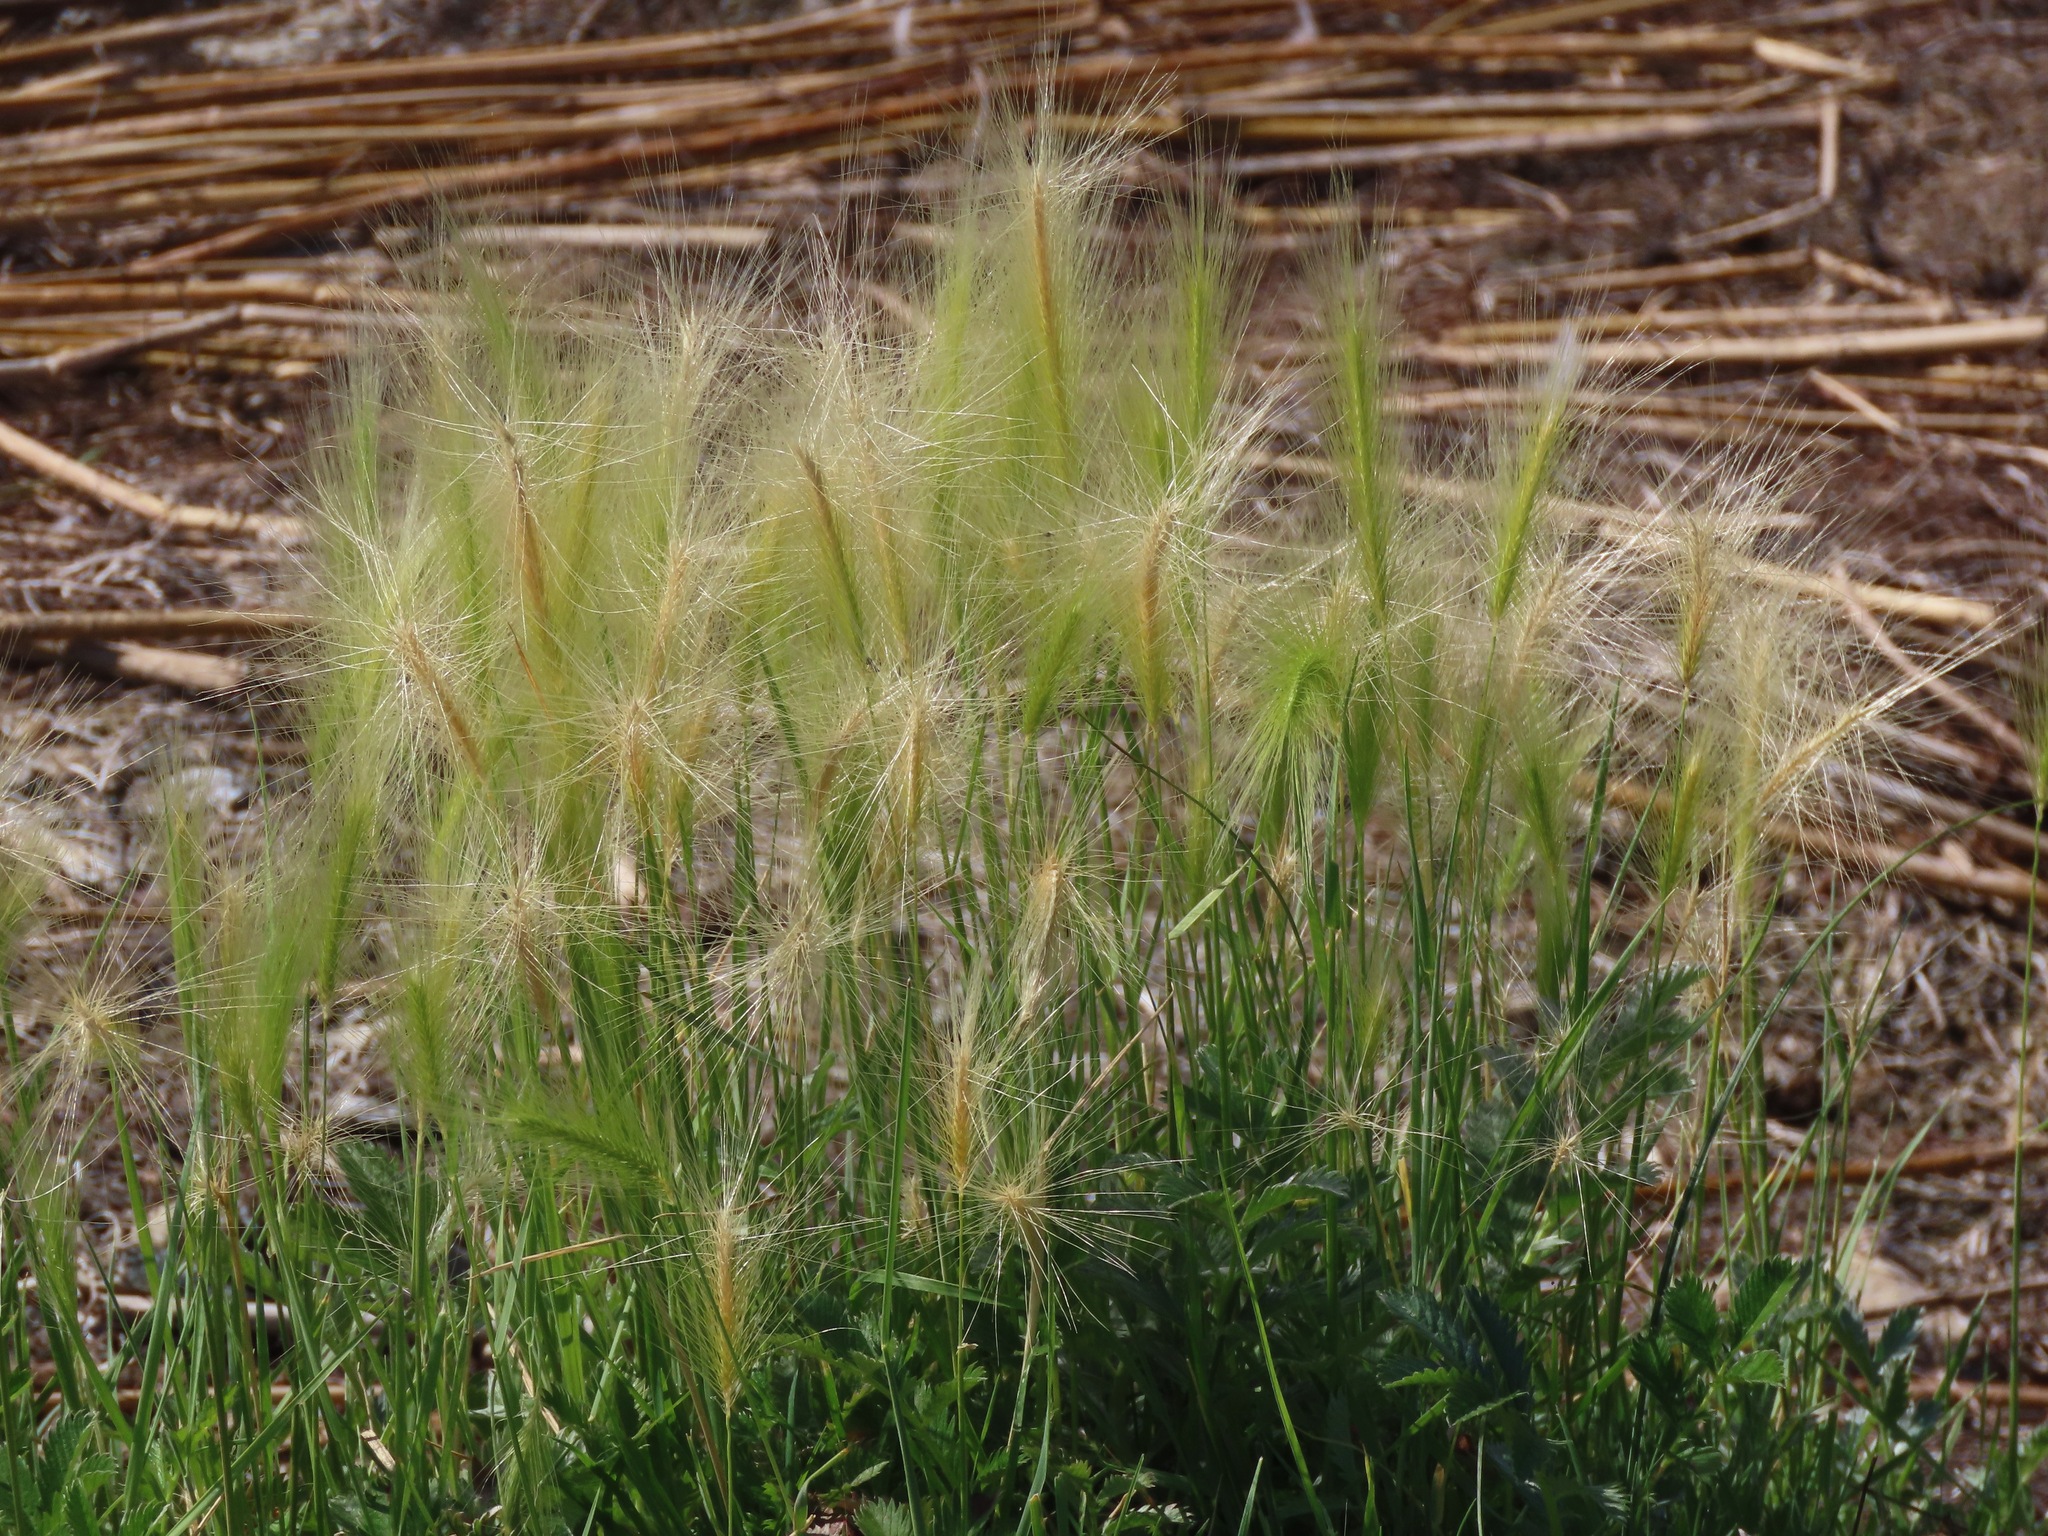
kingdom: Plantae
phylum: Tracheophyta
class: Liliopsida
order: Poales
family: Poaceae
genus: Hordeum
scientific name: Hordeum jubatum
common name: Foxtail barley
